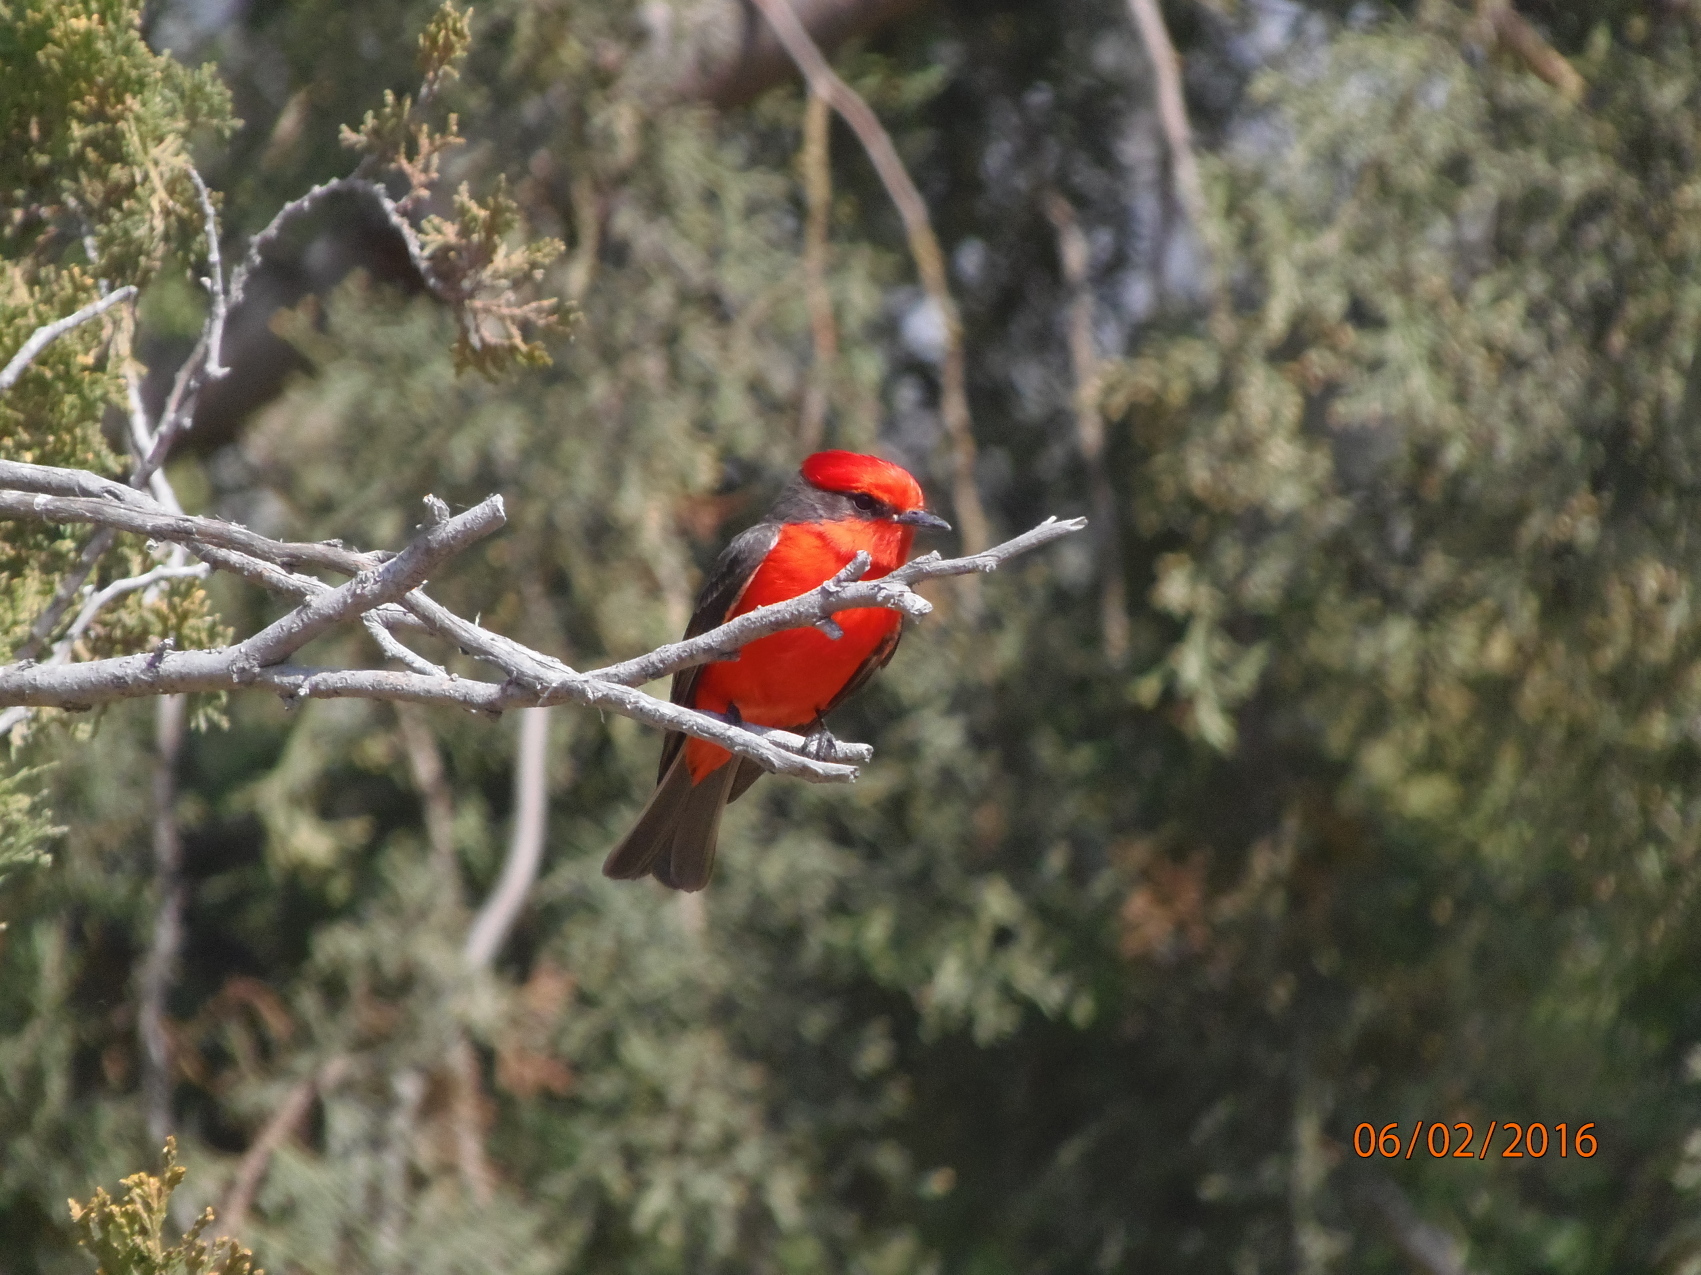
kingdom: Animalia
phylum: Chordata
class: Aves
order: Passeriformes
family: Tyrannidae
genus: Pyrocephalus
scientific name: Pyrocephalus rubinus
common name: Vermilion flycatcher
